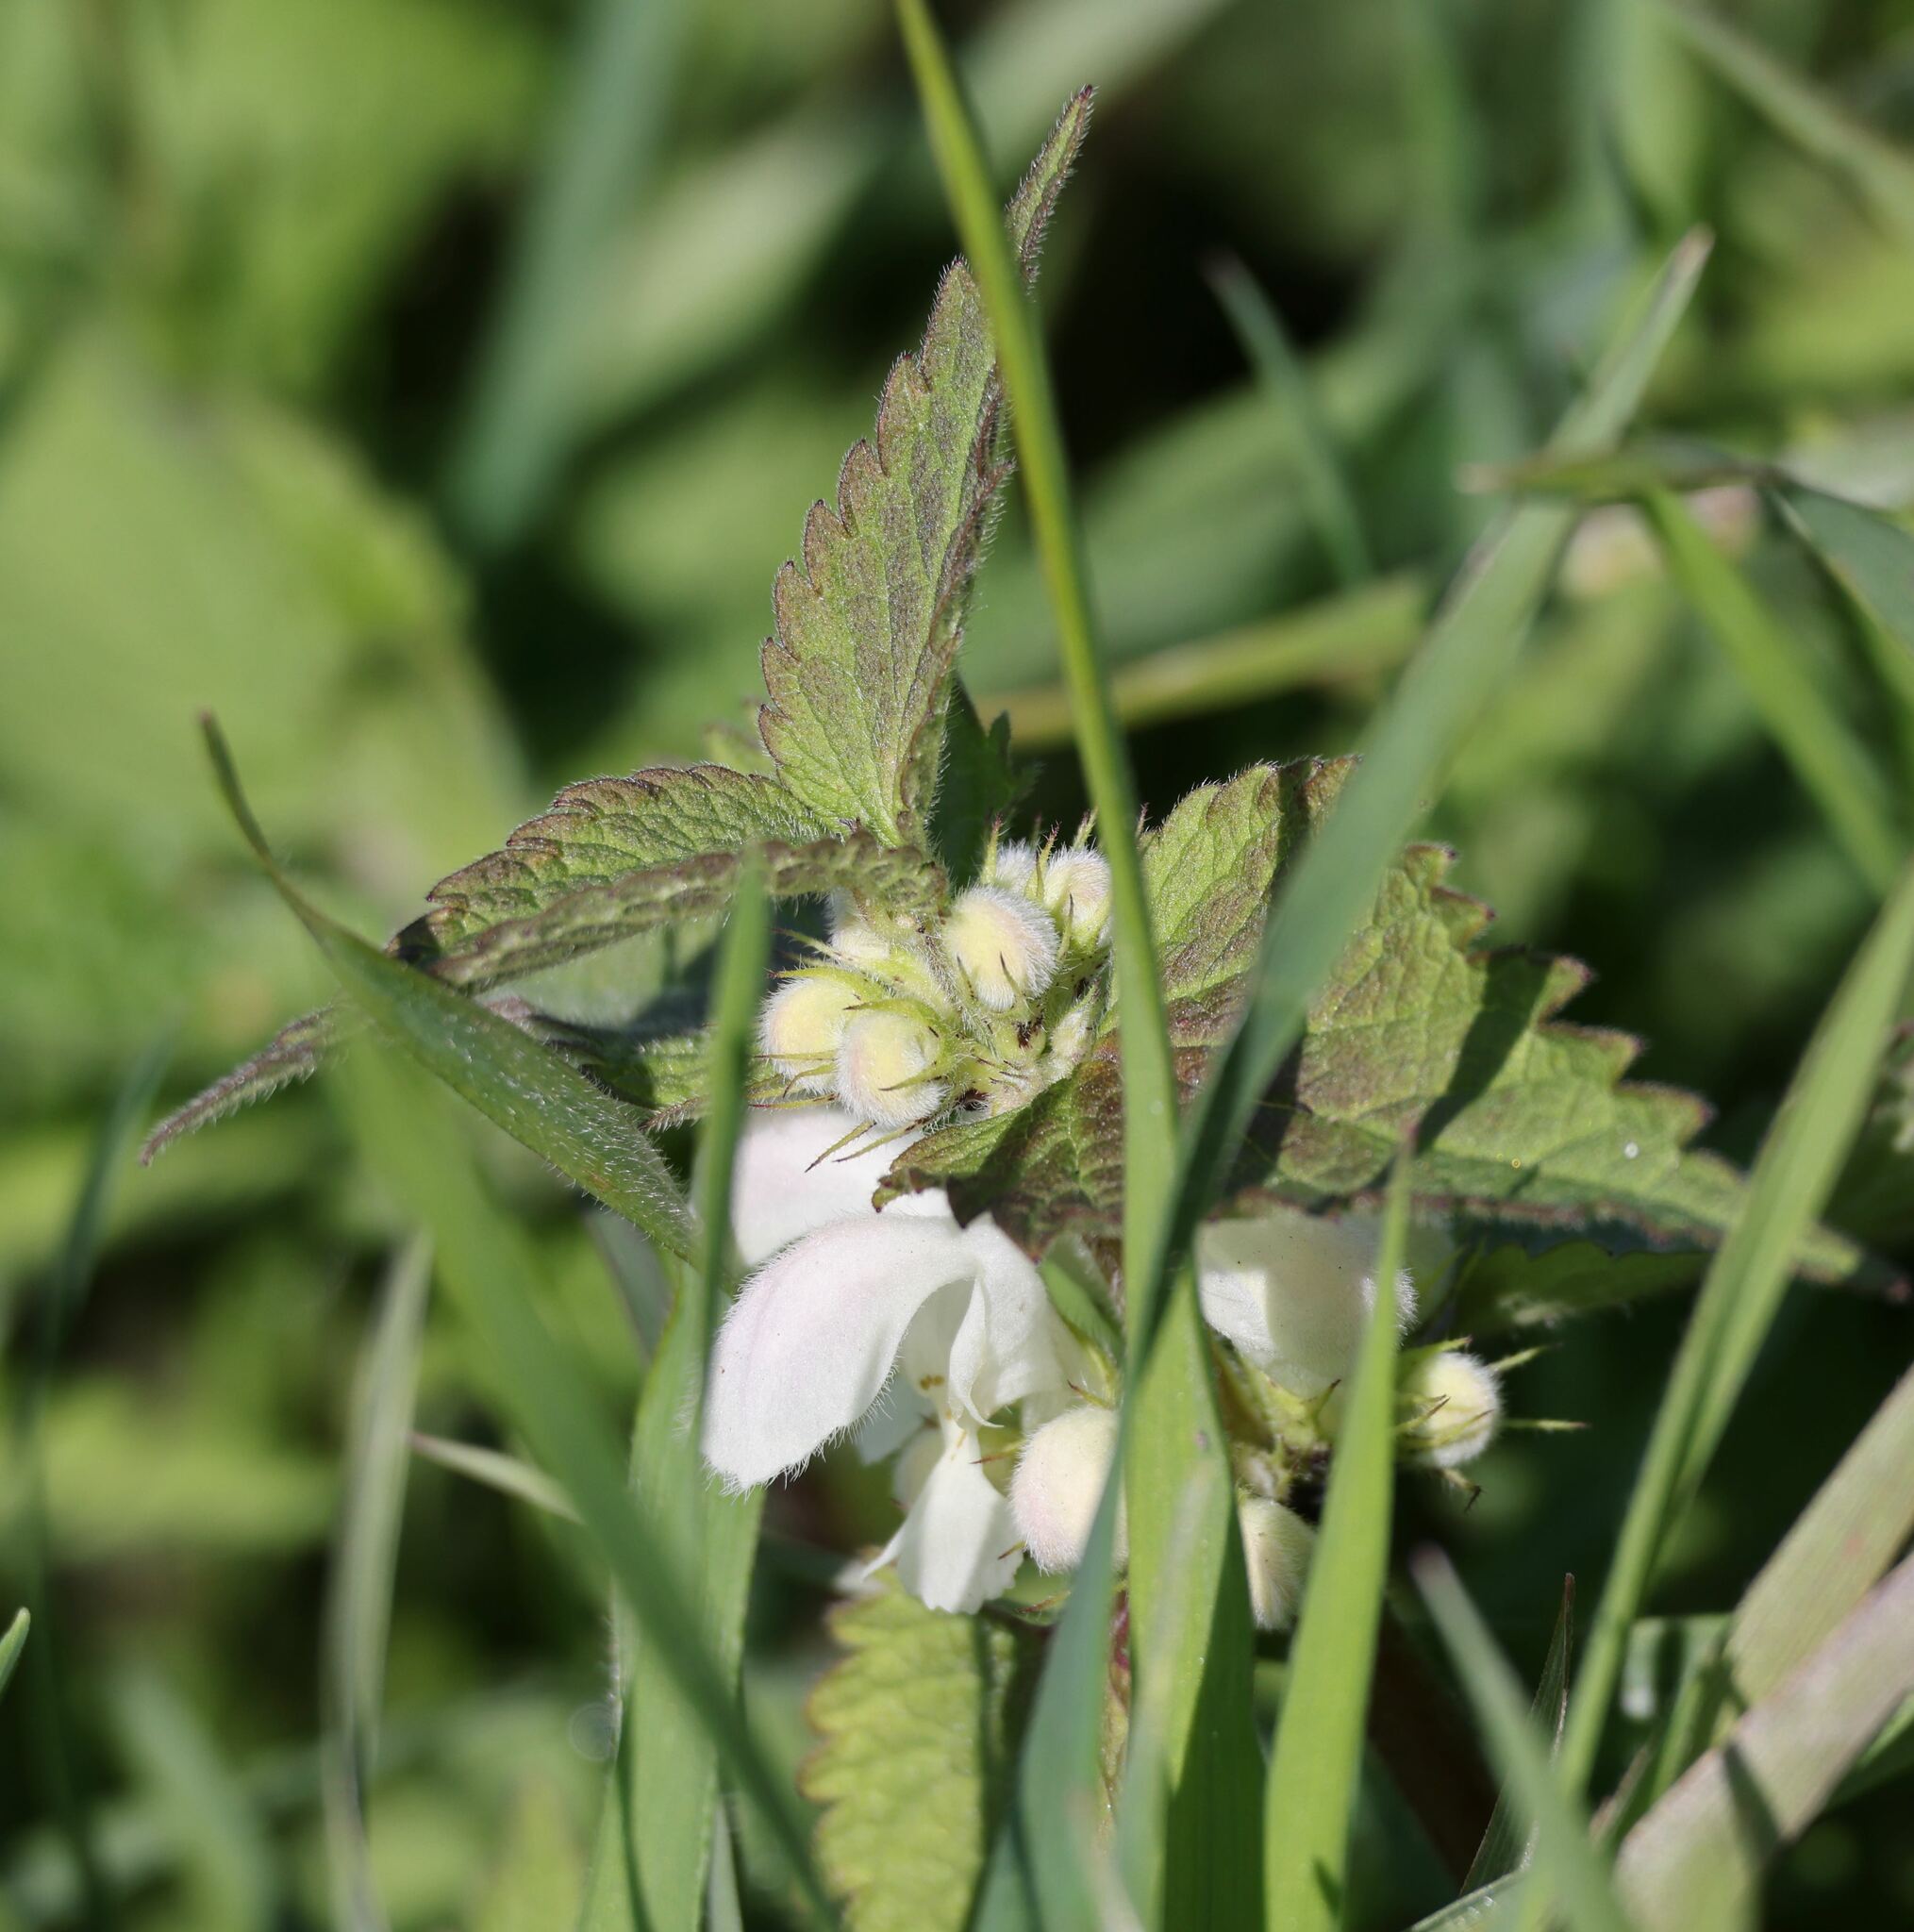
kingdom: Plantae
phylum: Tracheophyta
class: Magnoliopsida
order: Lamiales
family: Lamiaceae
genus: Lamium
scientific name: Lamium album
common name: White dead-nettle
